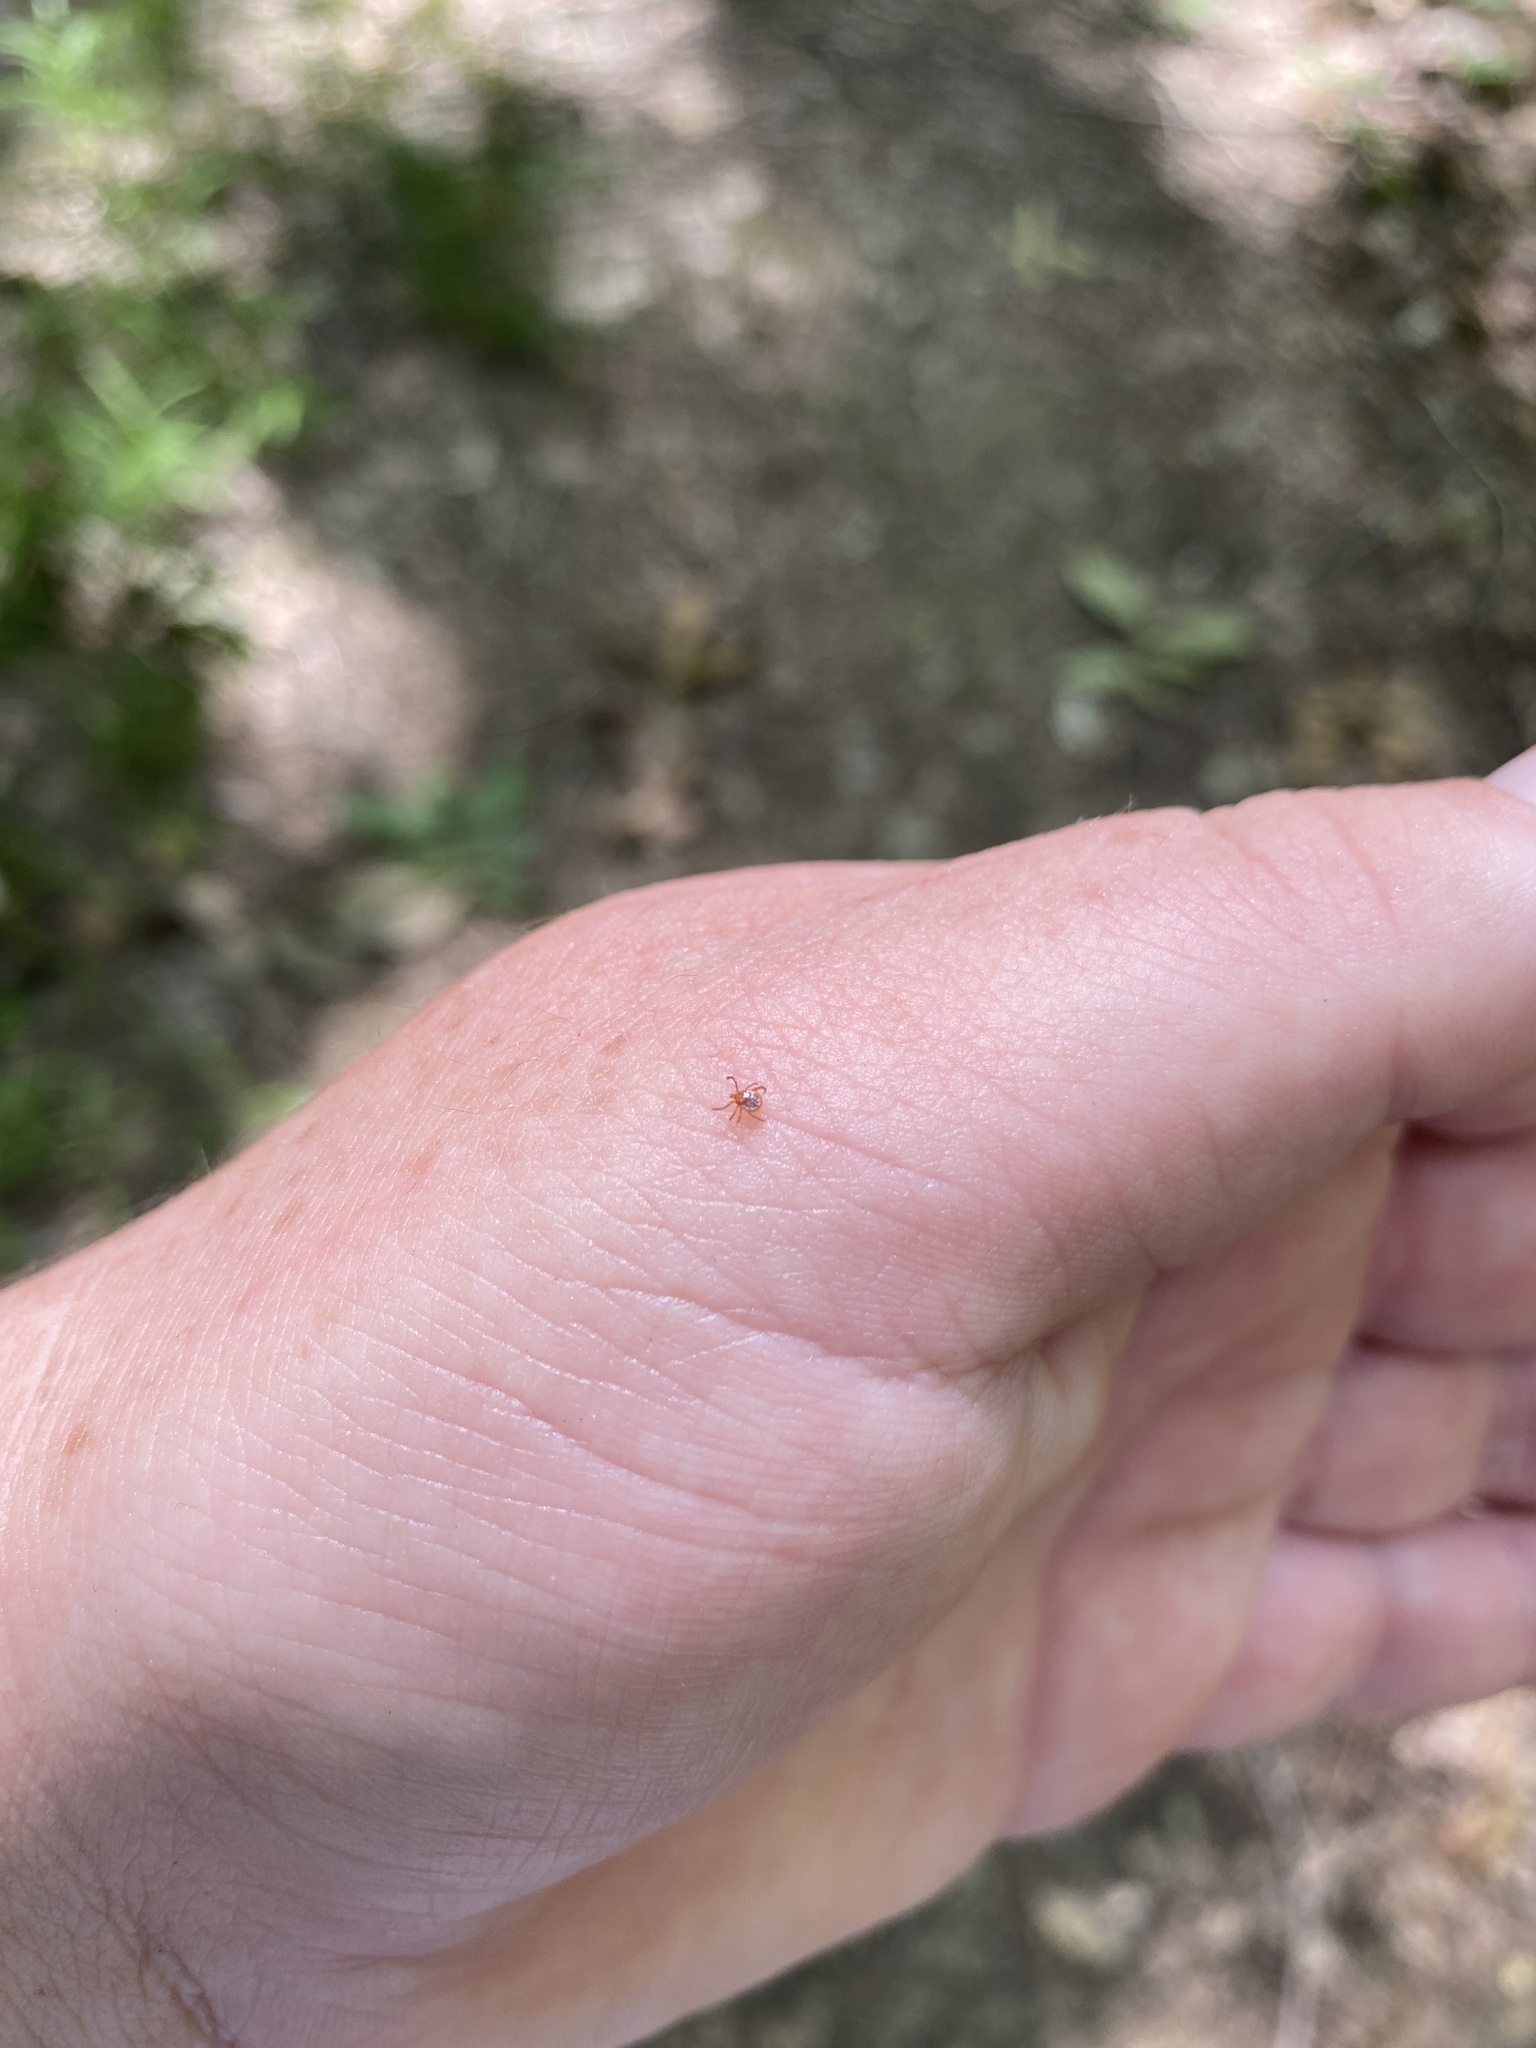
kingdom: Animalia
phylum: Arthropoda
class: Arachnida
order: Ixodida
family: Ixodidae
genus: Amblyomma
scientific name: Amblyomma americanum
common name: Lone star tick
